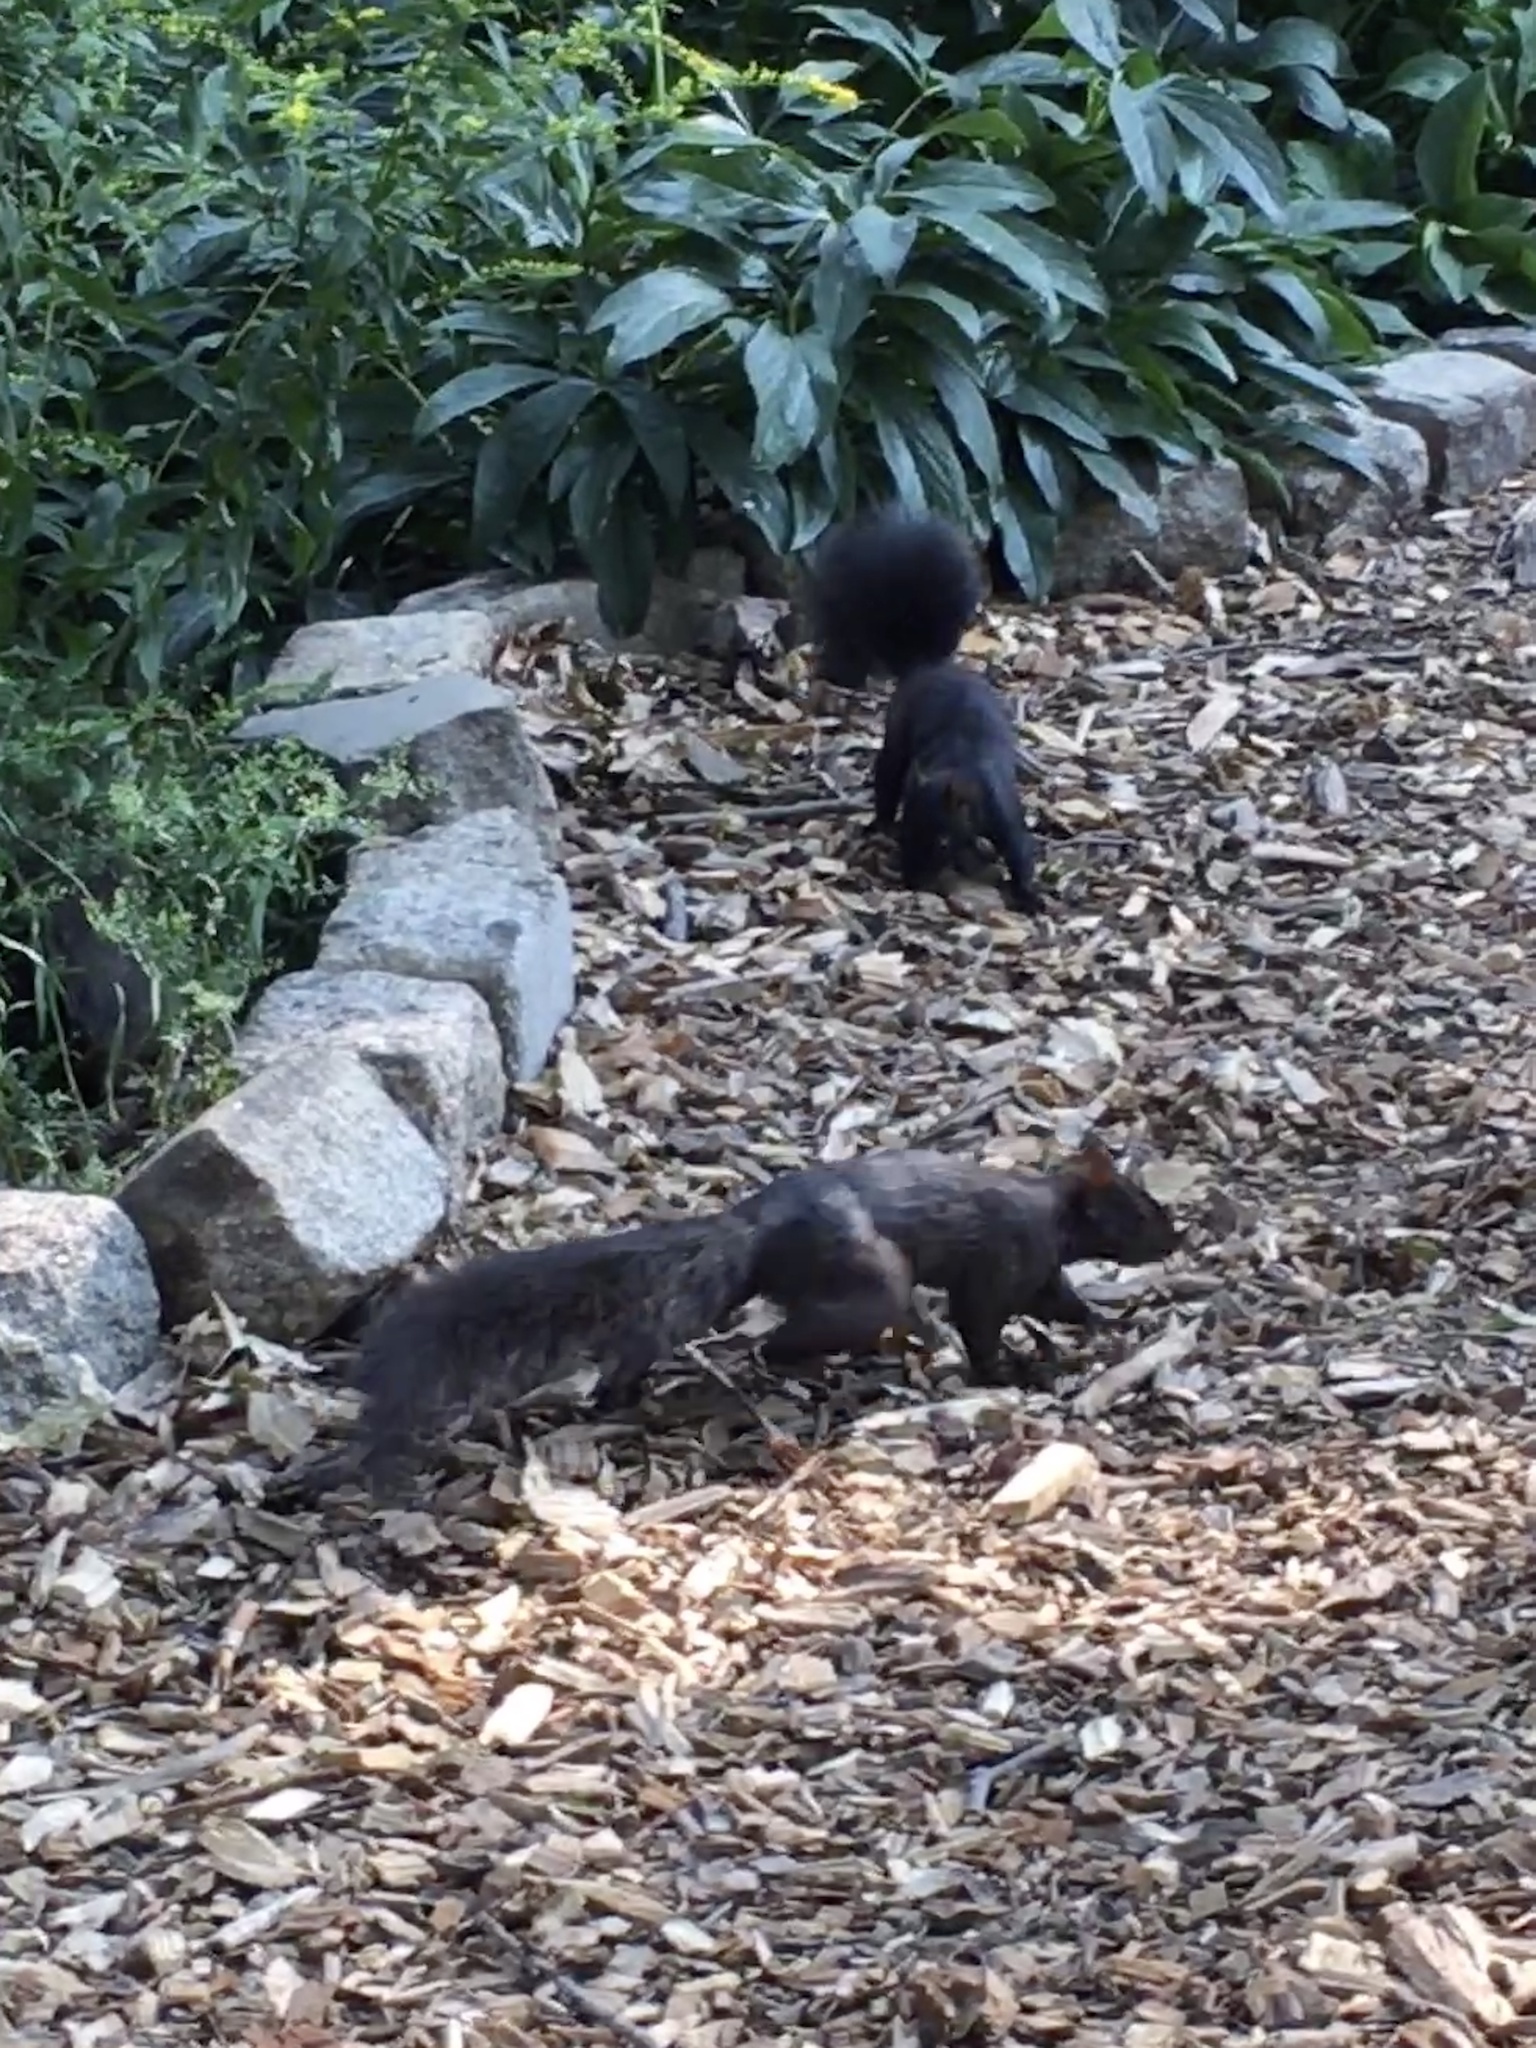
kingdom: Animalia
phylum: Chordata
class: Mammalia
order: Rodentia
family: Sciuridae
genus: Sciurus
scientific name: Sciurus carolinensis
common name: Eastern gray squirrel
